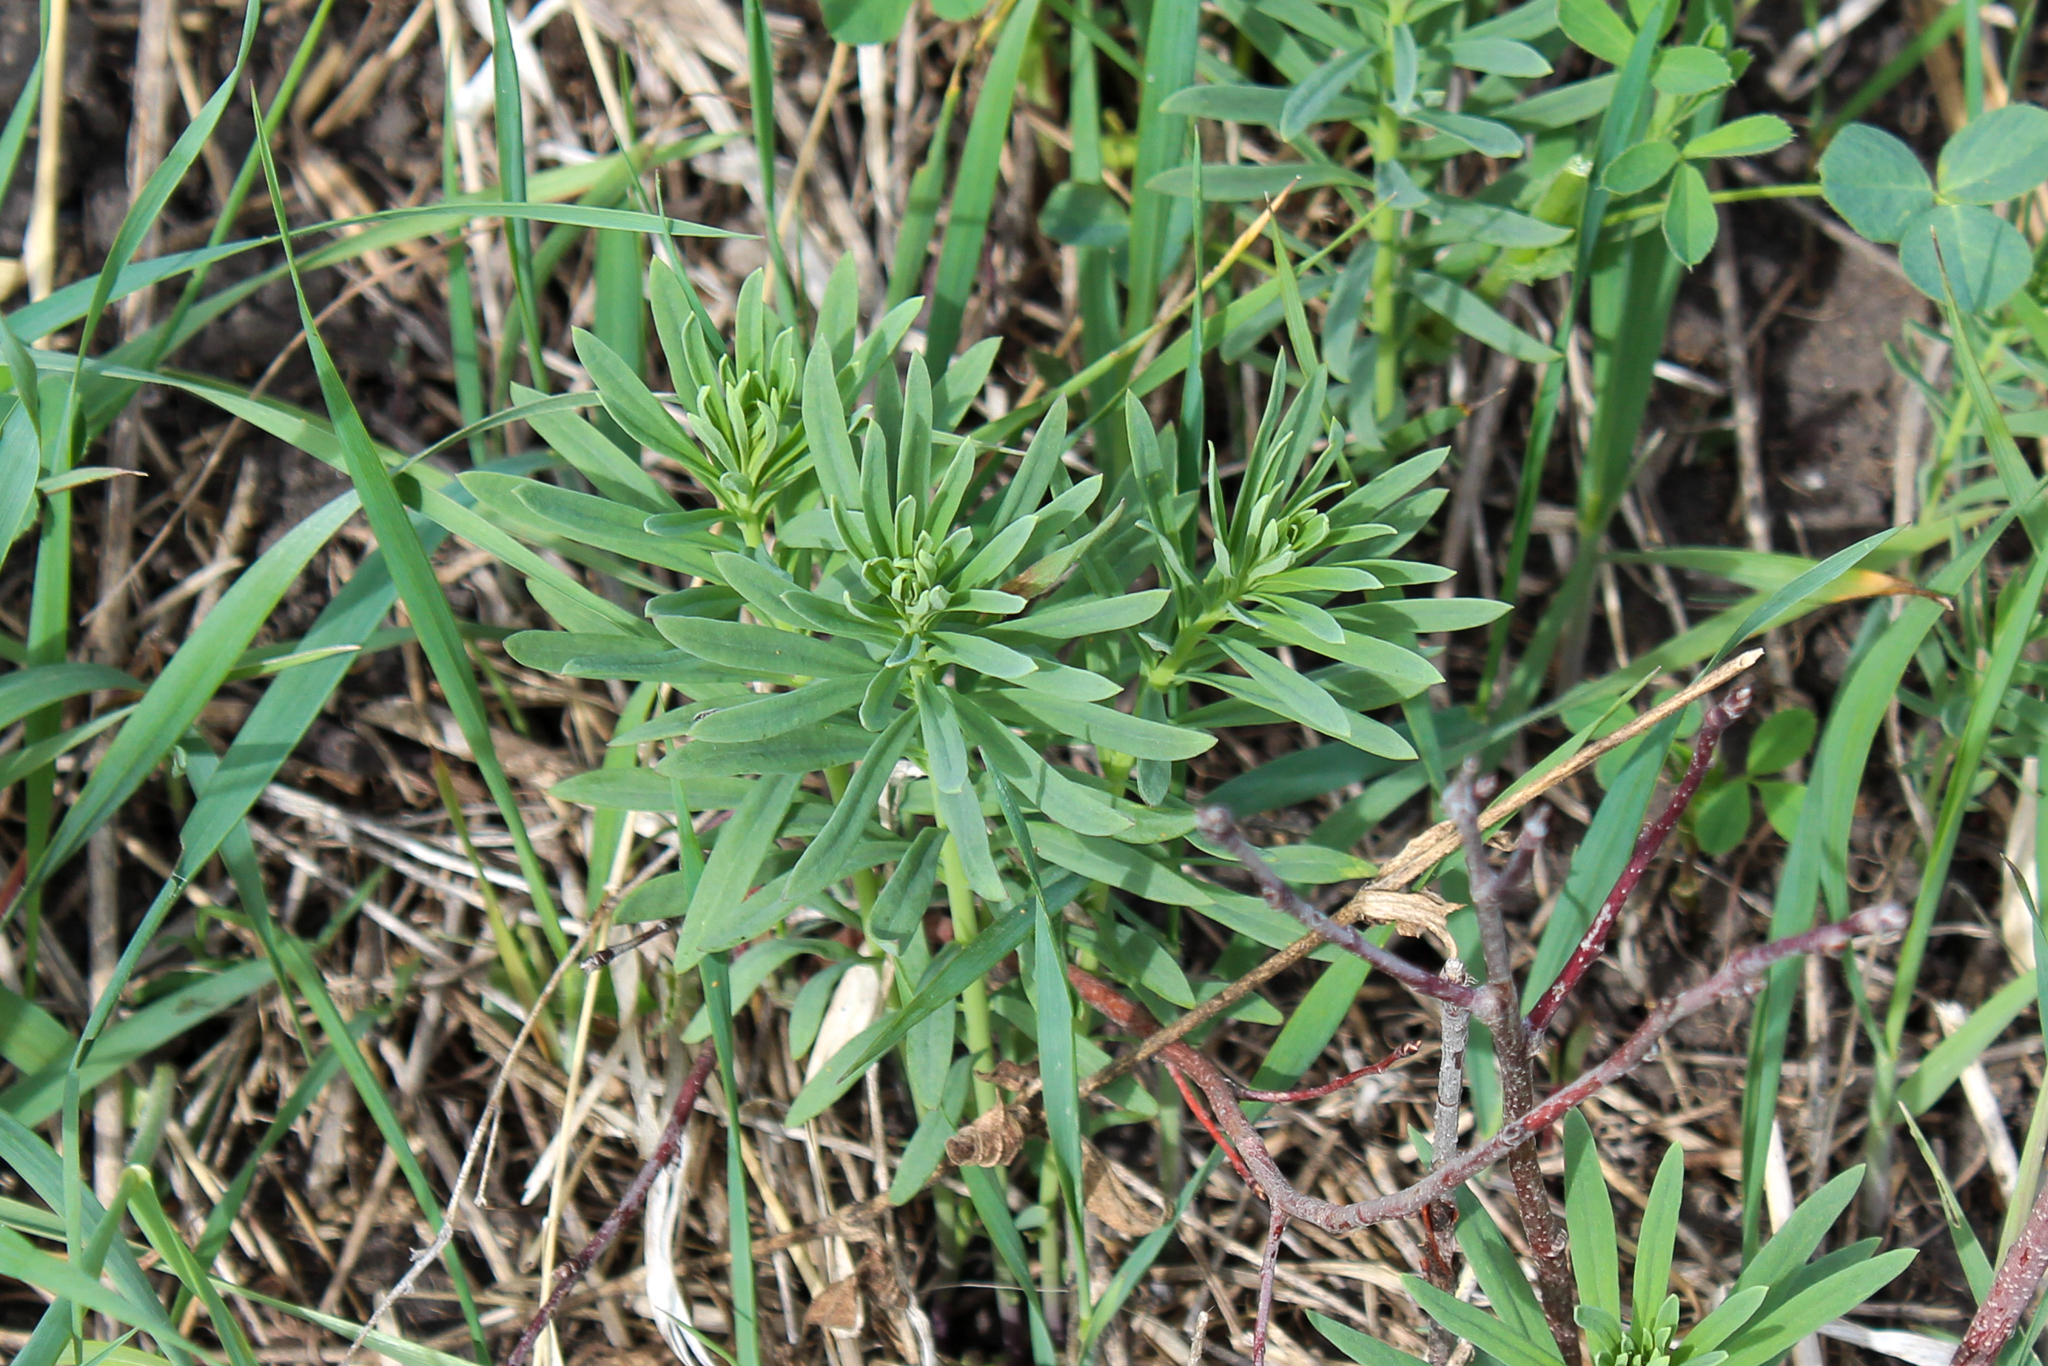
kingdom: Plantae
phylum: Tracheophyta
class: Magnoliopsida
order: Lamiales
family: Plantaginaceae
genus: Linaria
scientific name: Linaria vulgaris
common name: Butter and eggs
